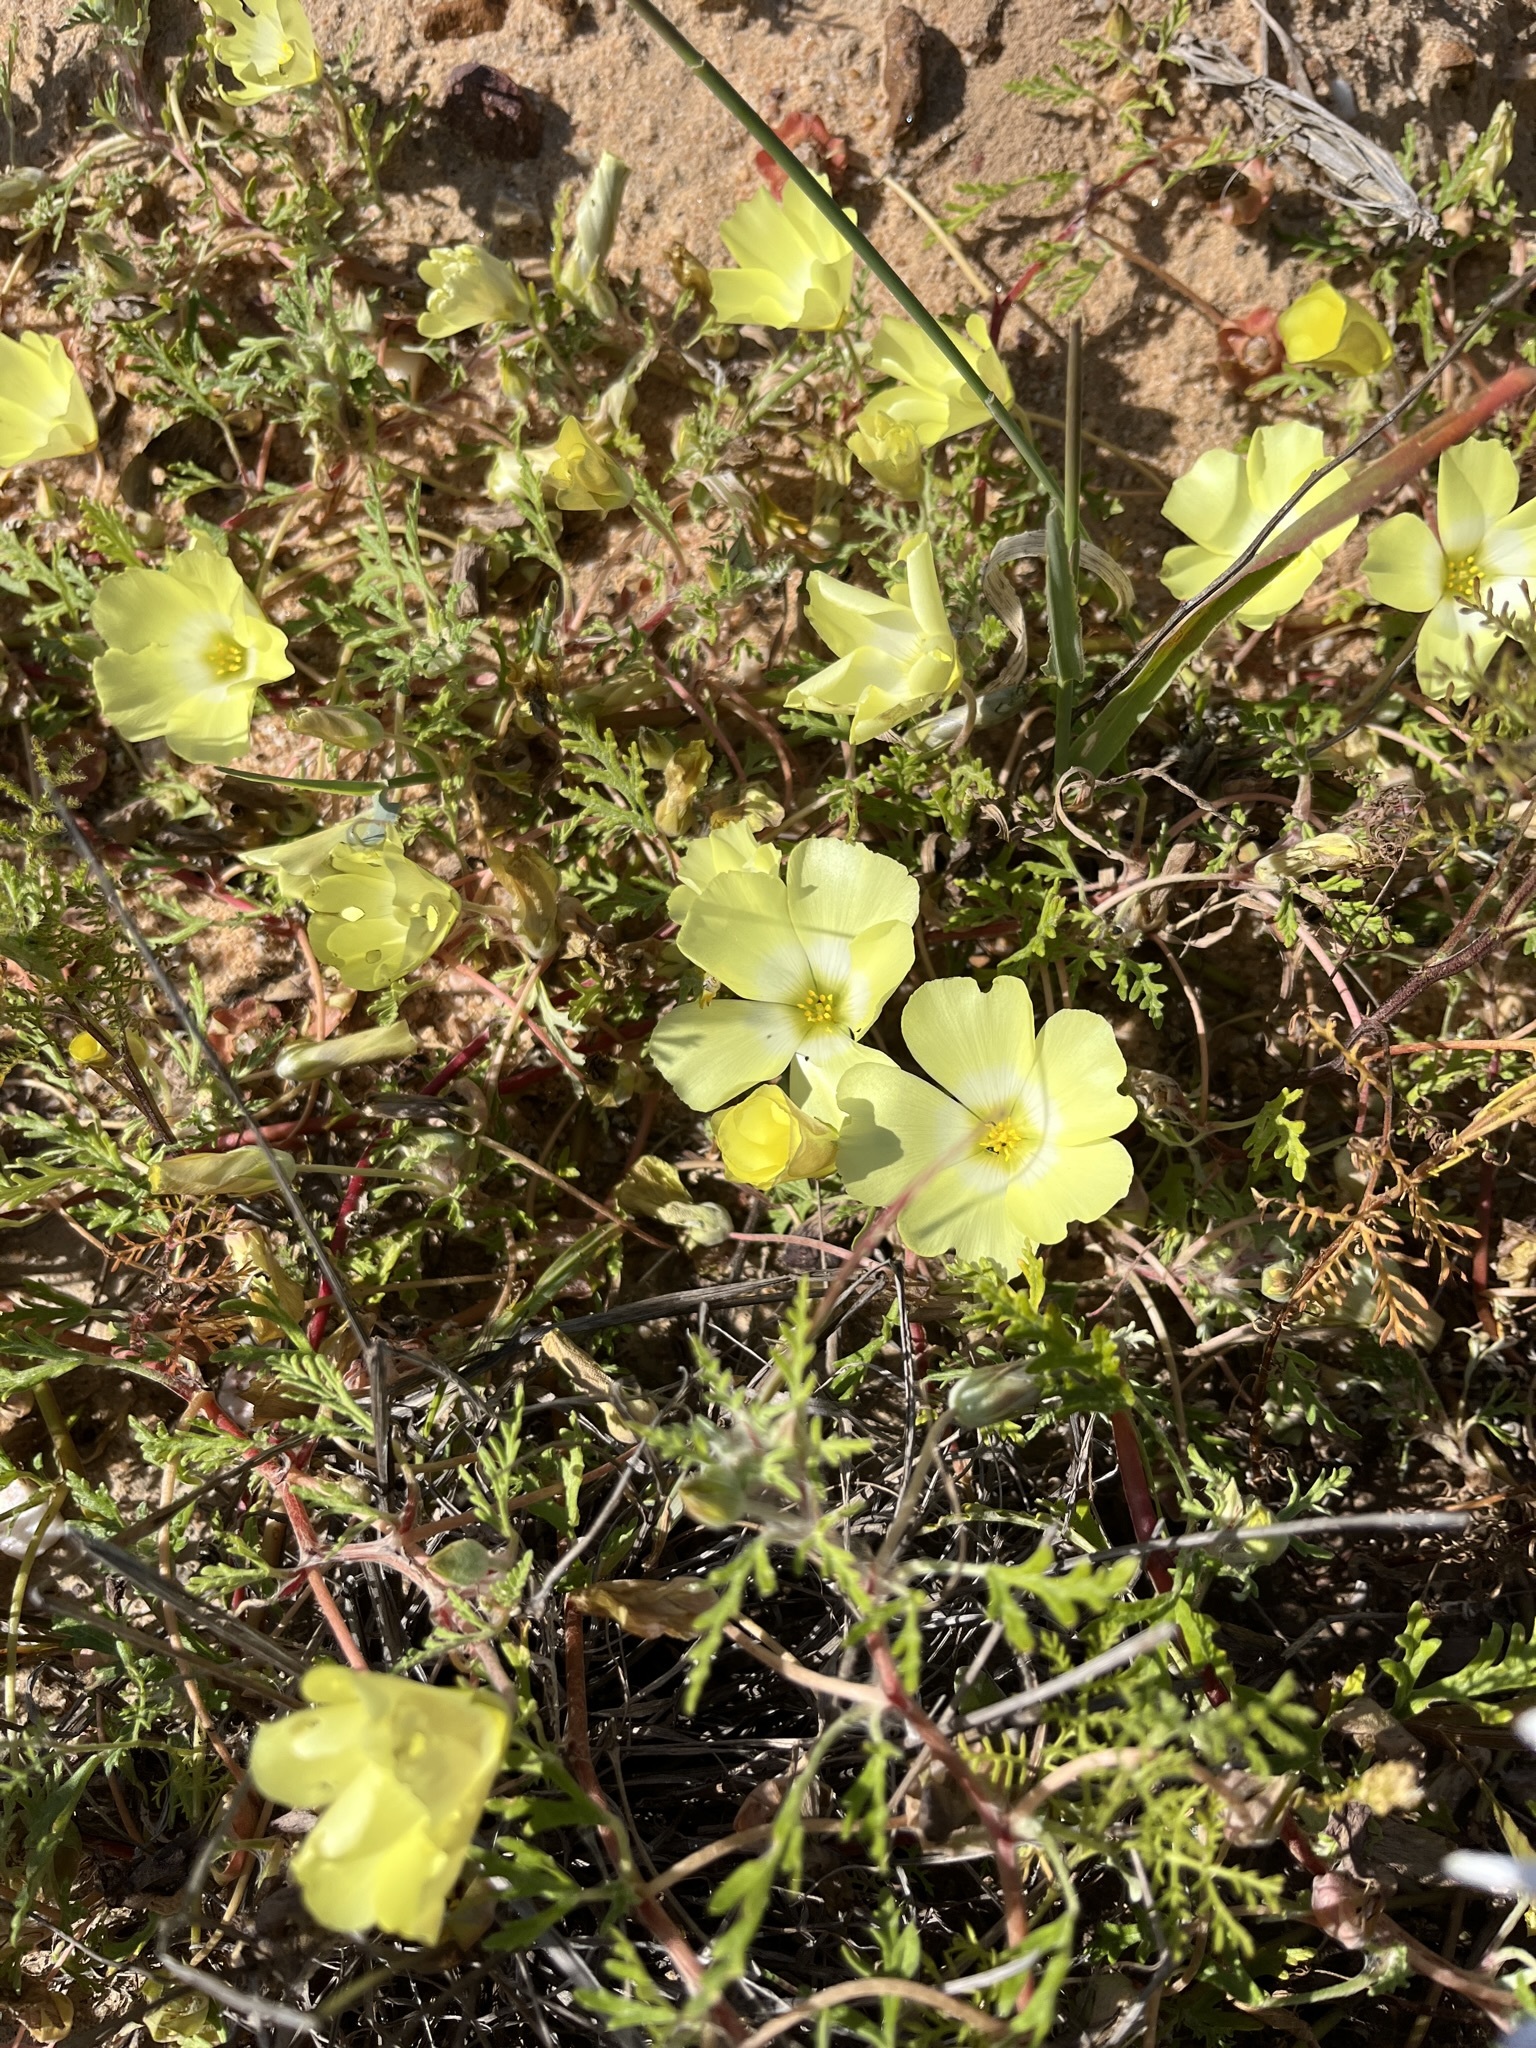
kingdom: Plantae
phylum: Tracheophyta
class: Magnoliopsida
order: Malvales
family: Neuradaceae
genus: Grielum
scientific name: Grielum humifusum
